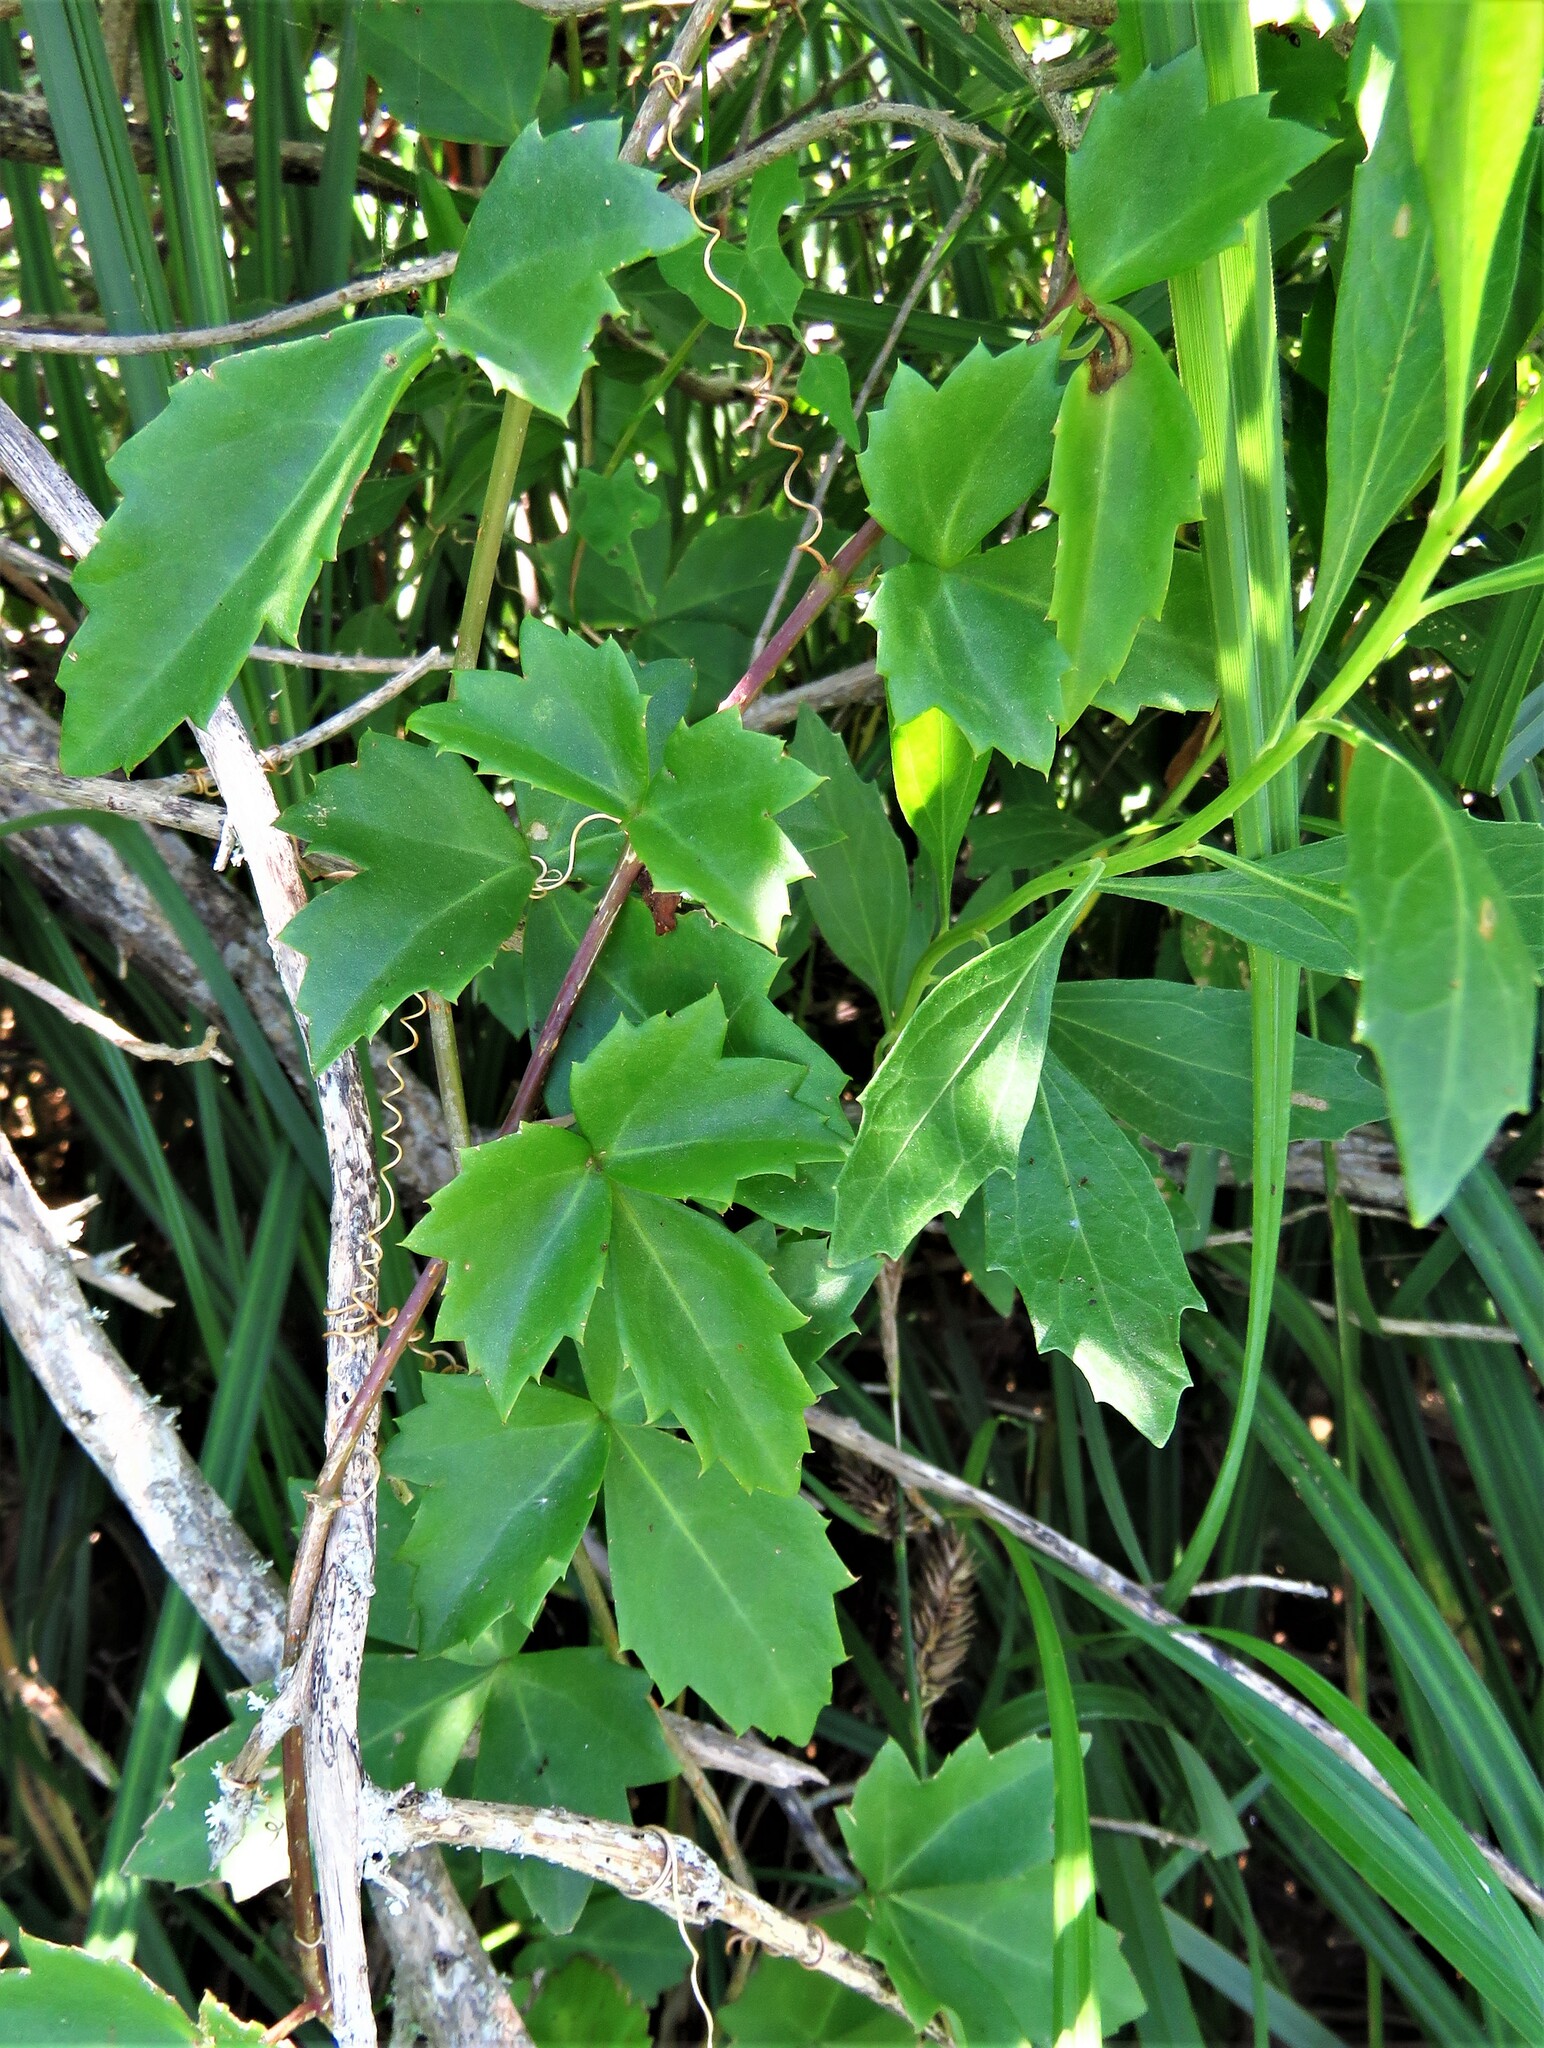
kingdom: Plantae
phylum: Tracheophyta
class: Magnoliopsida
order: Vitales
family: Vitaceae
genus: Cissus
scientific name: Cissus trifoliata
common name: Vine-sorrel
